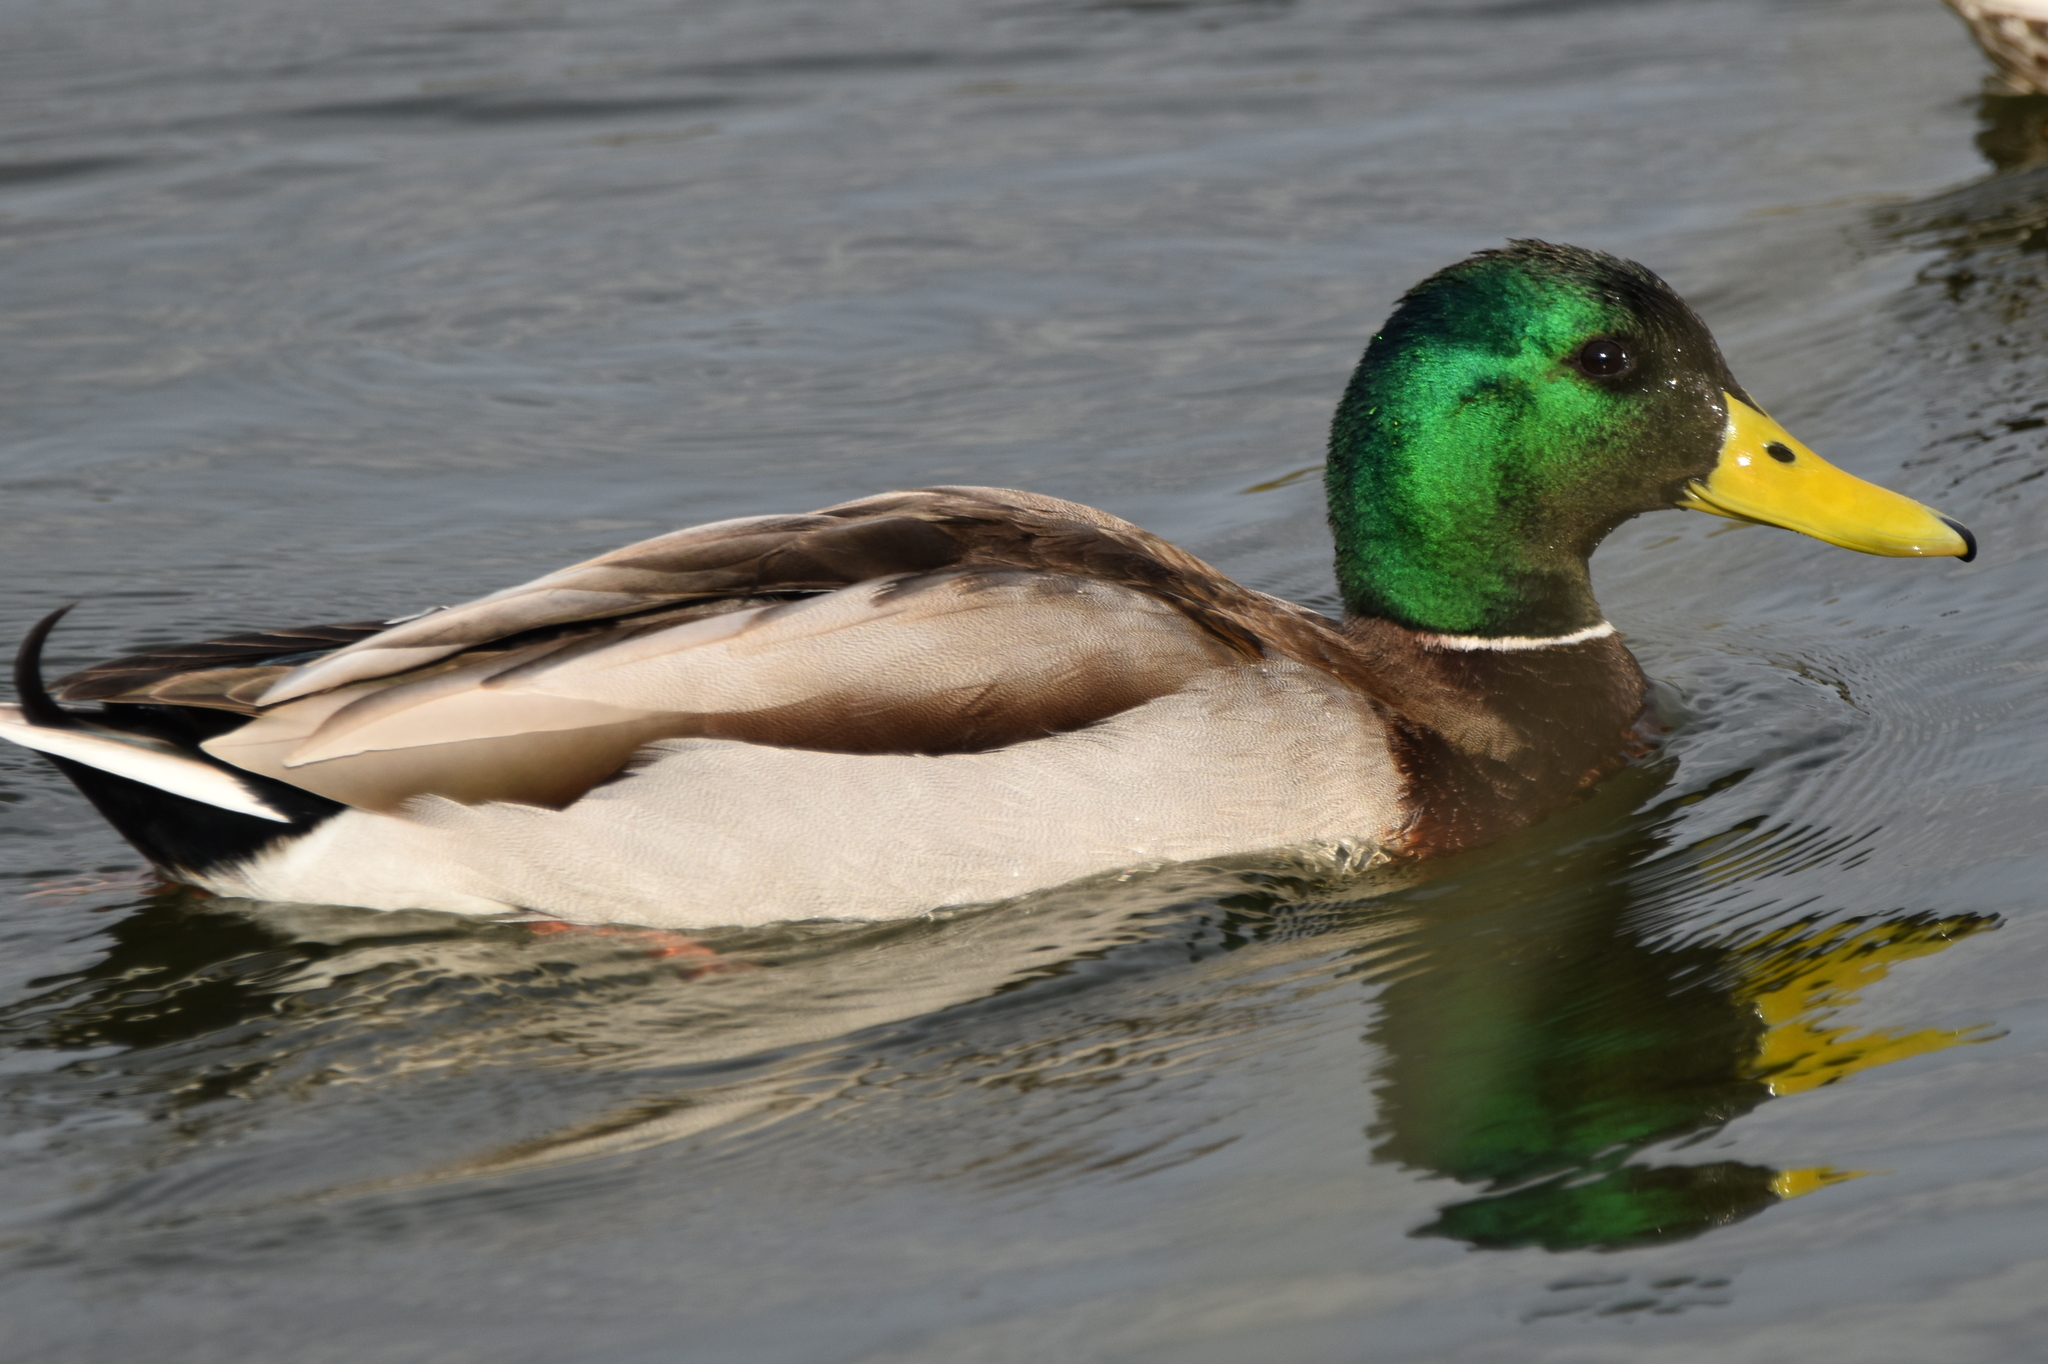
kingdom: Animalia
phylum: Chordata
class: Aves
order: Anseriformes
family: Anatidae
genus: Anas
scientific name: Anas platyrhynchos
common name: Mallard
